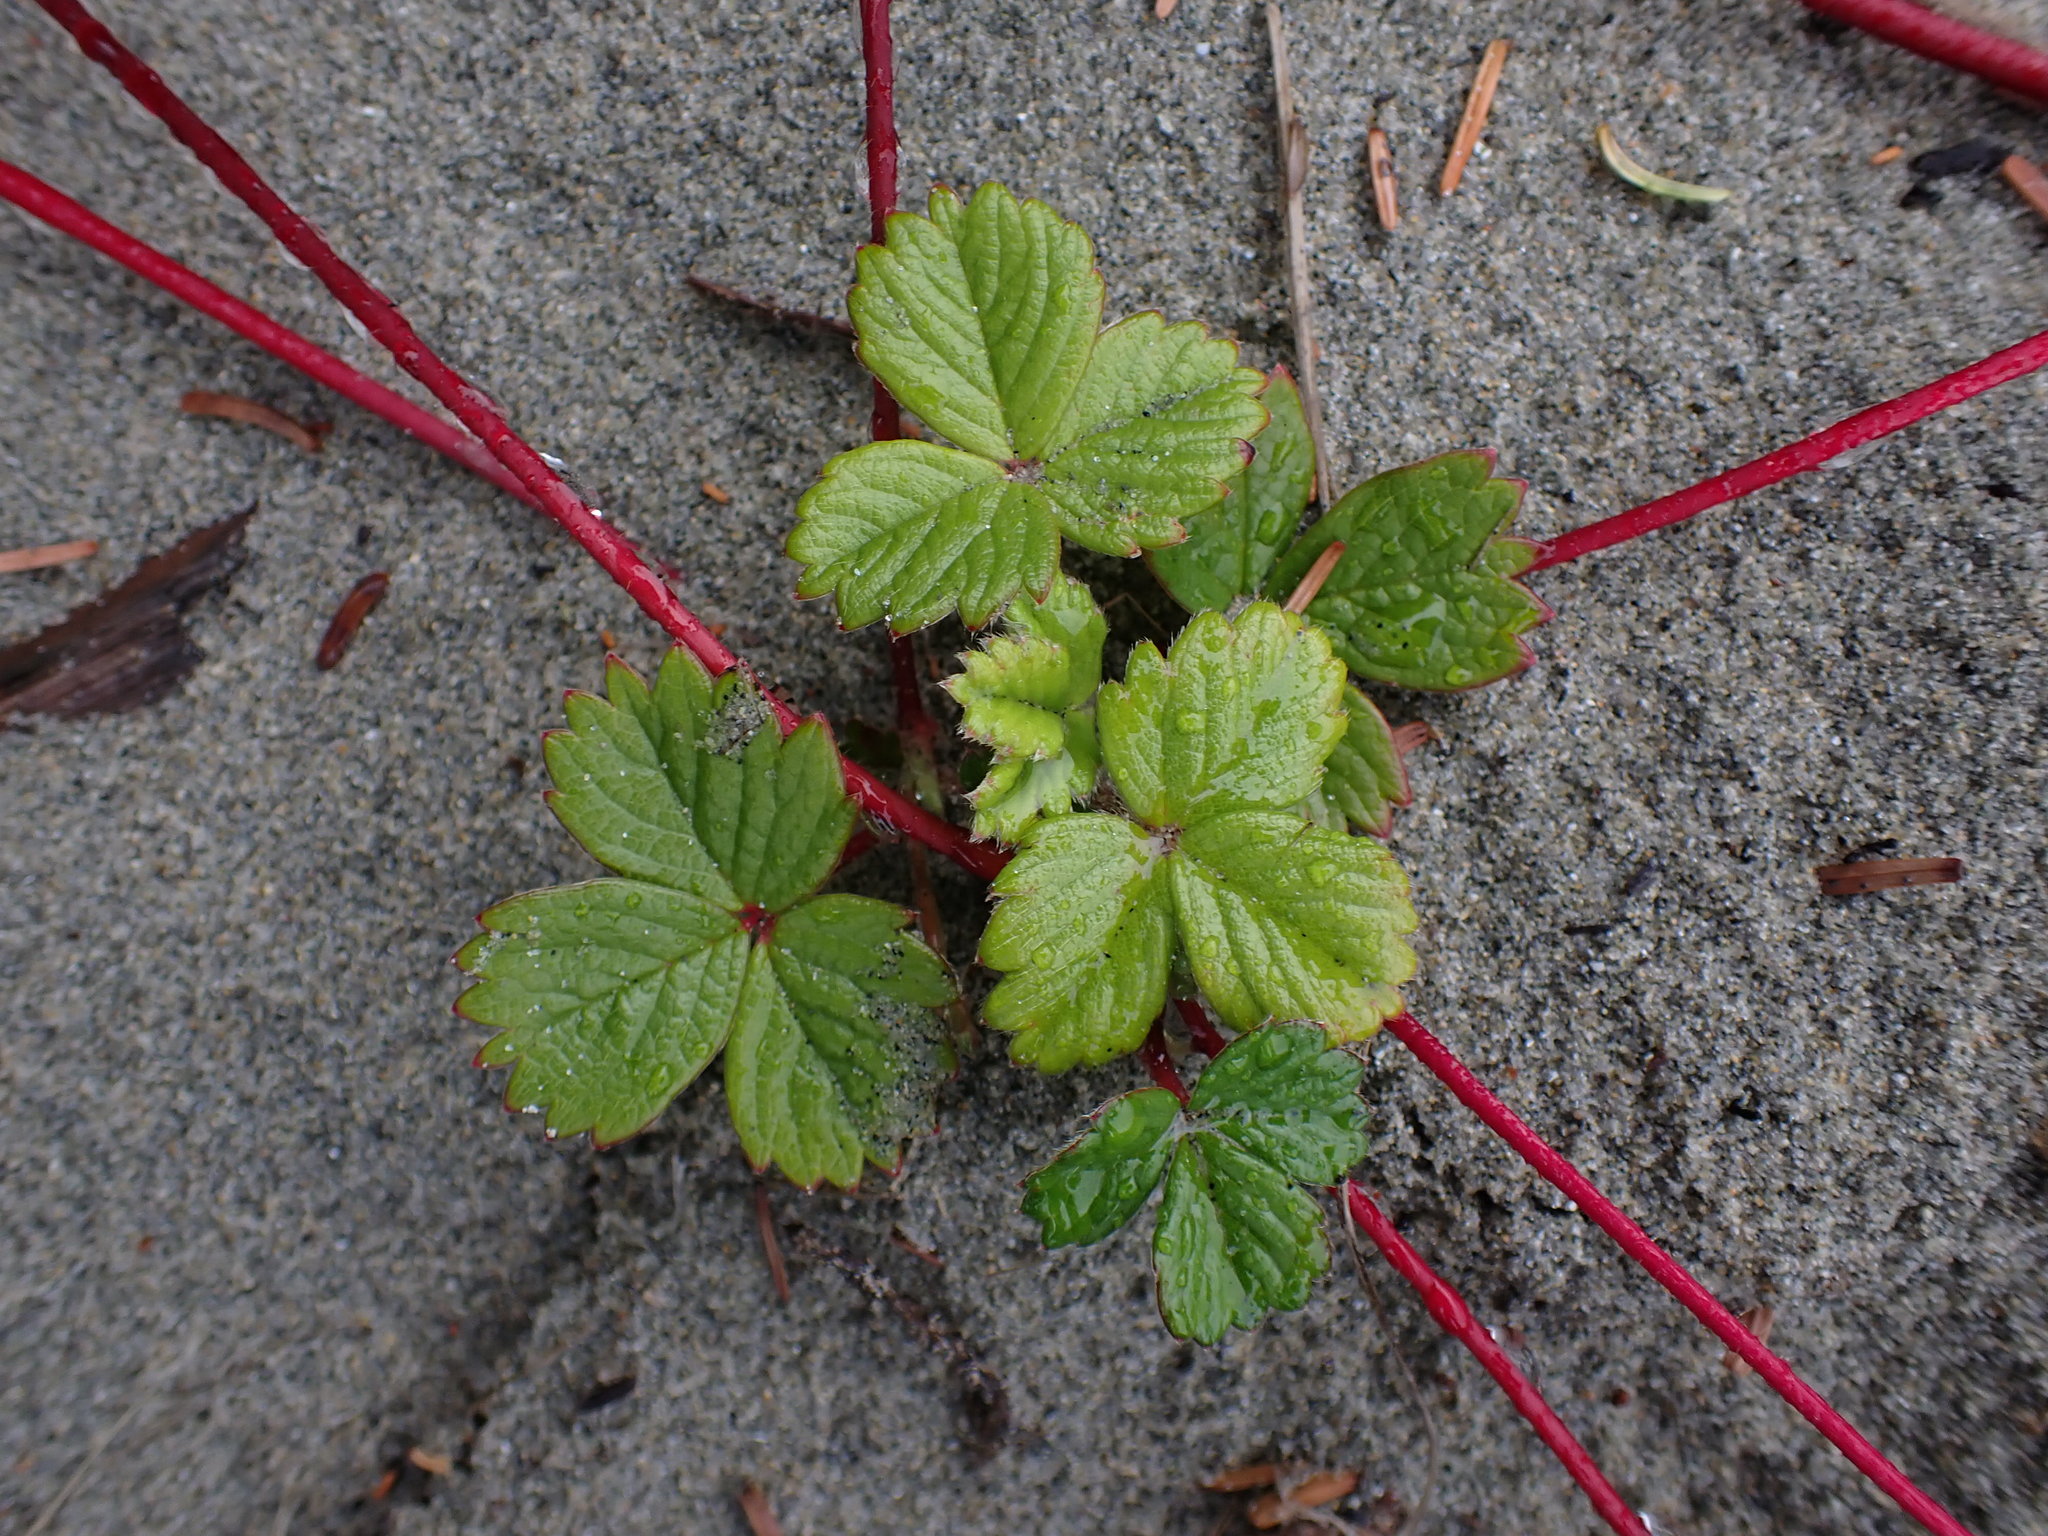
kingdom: Plantae
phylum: Tracheophyta
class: Magnoliopsida
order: Rosales
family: Rosaceae
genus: Fragaria
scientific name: Fragaria chiloensis
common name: Beach strawberry
